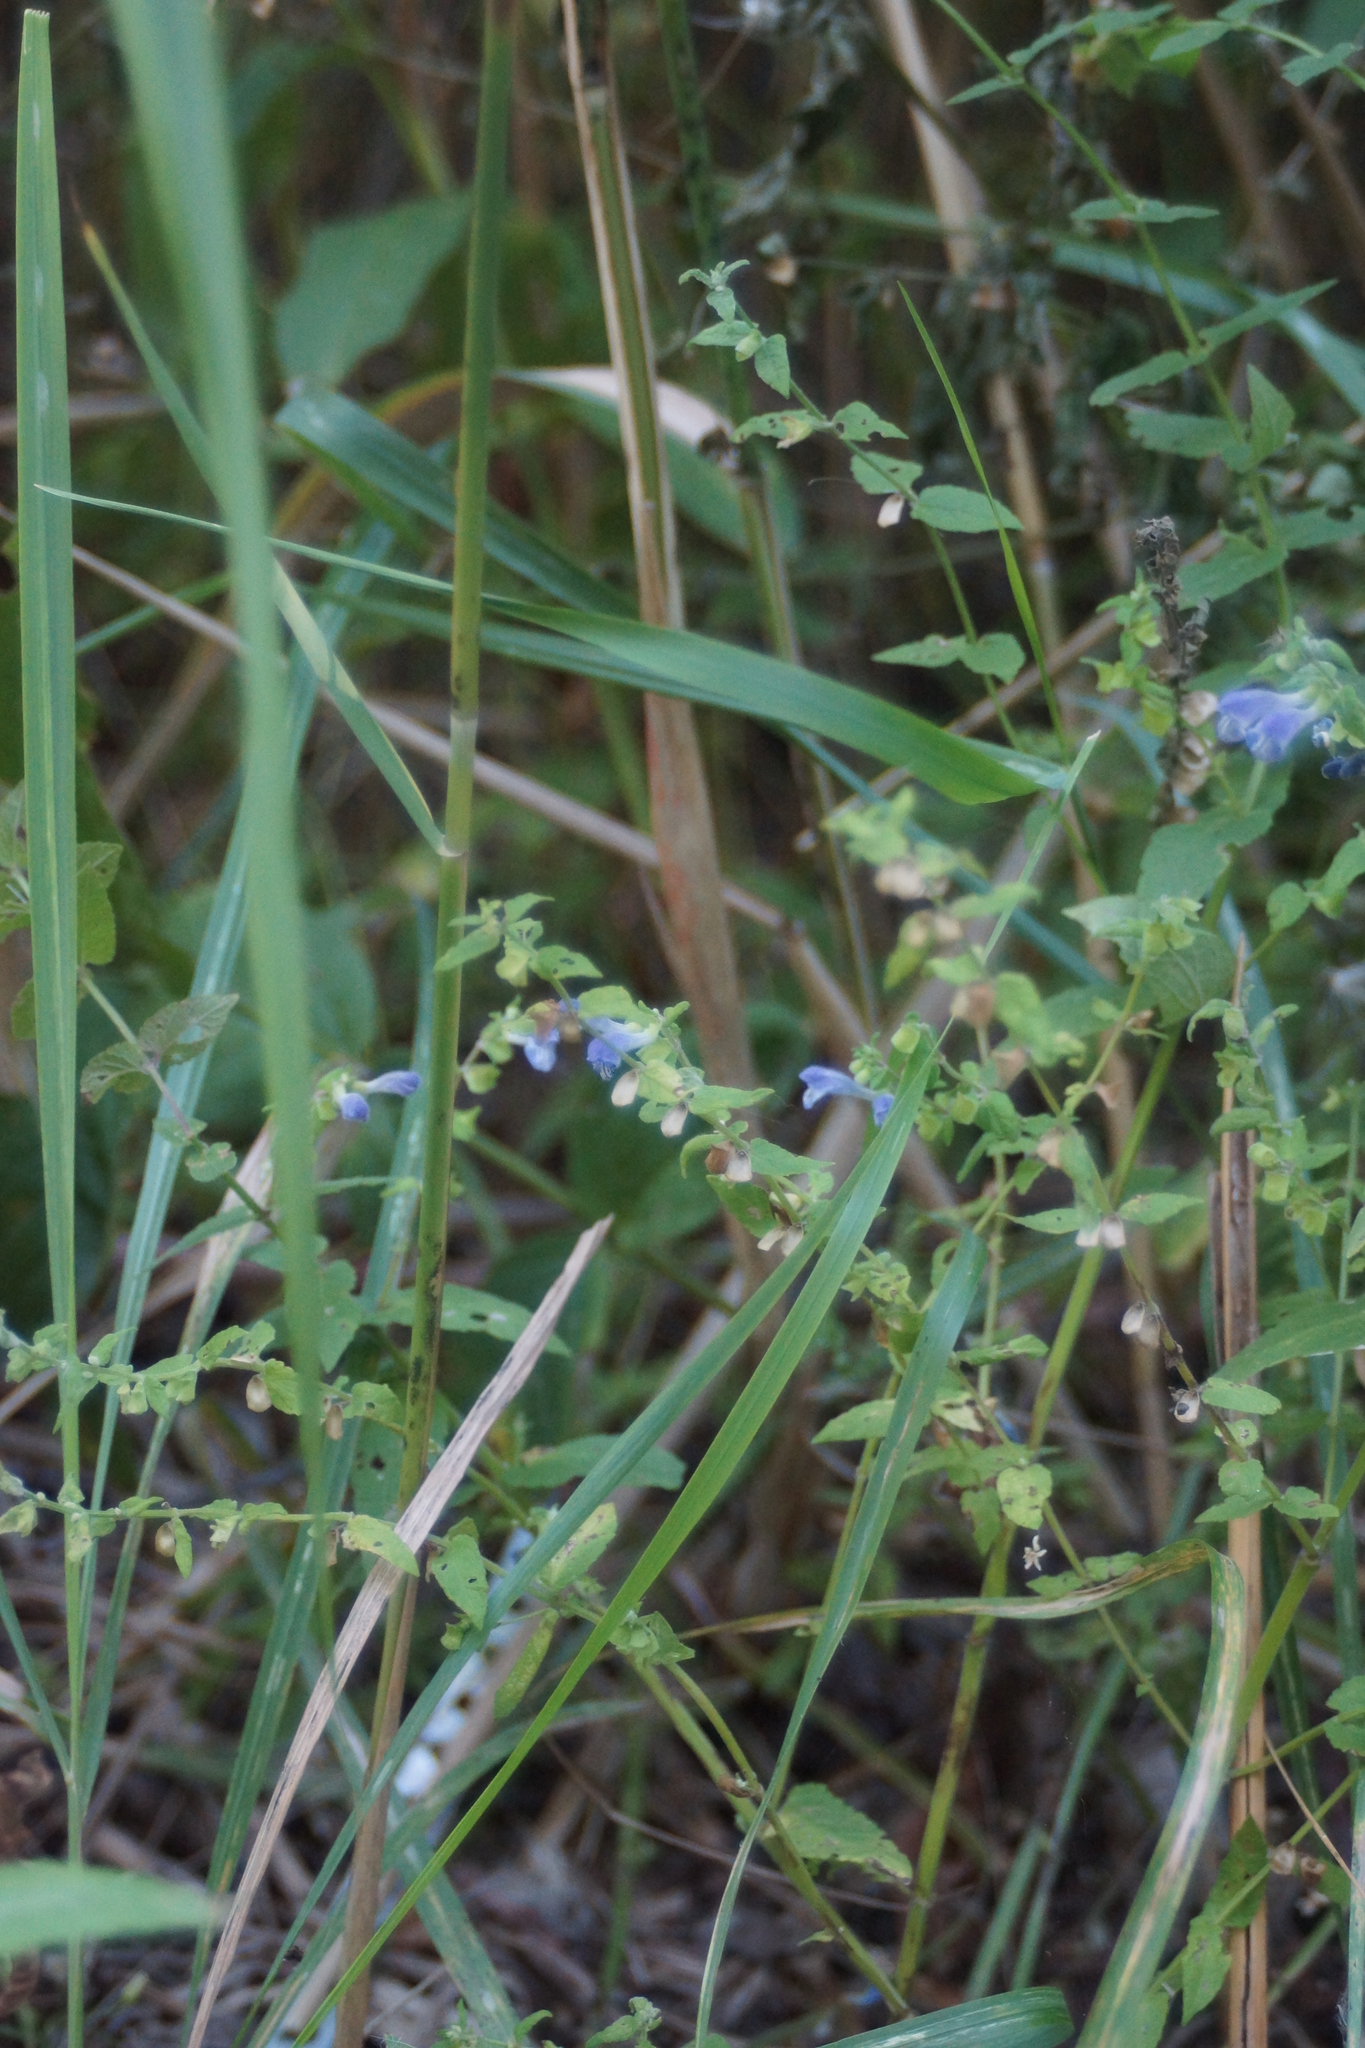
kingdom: Plantae
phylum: Tracheophyta
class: Magnoliopsida
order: Lamiales
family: Lamiaceae
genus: Scutellaria
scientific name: Scutellaria galericulata
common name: Skullcap
